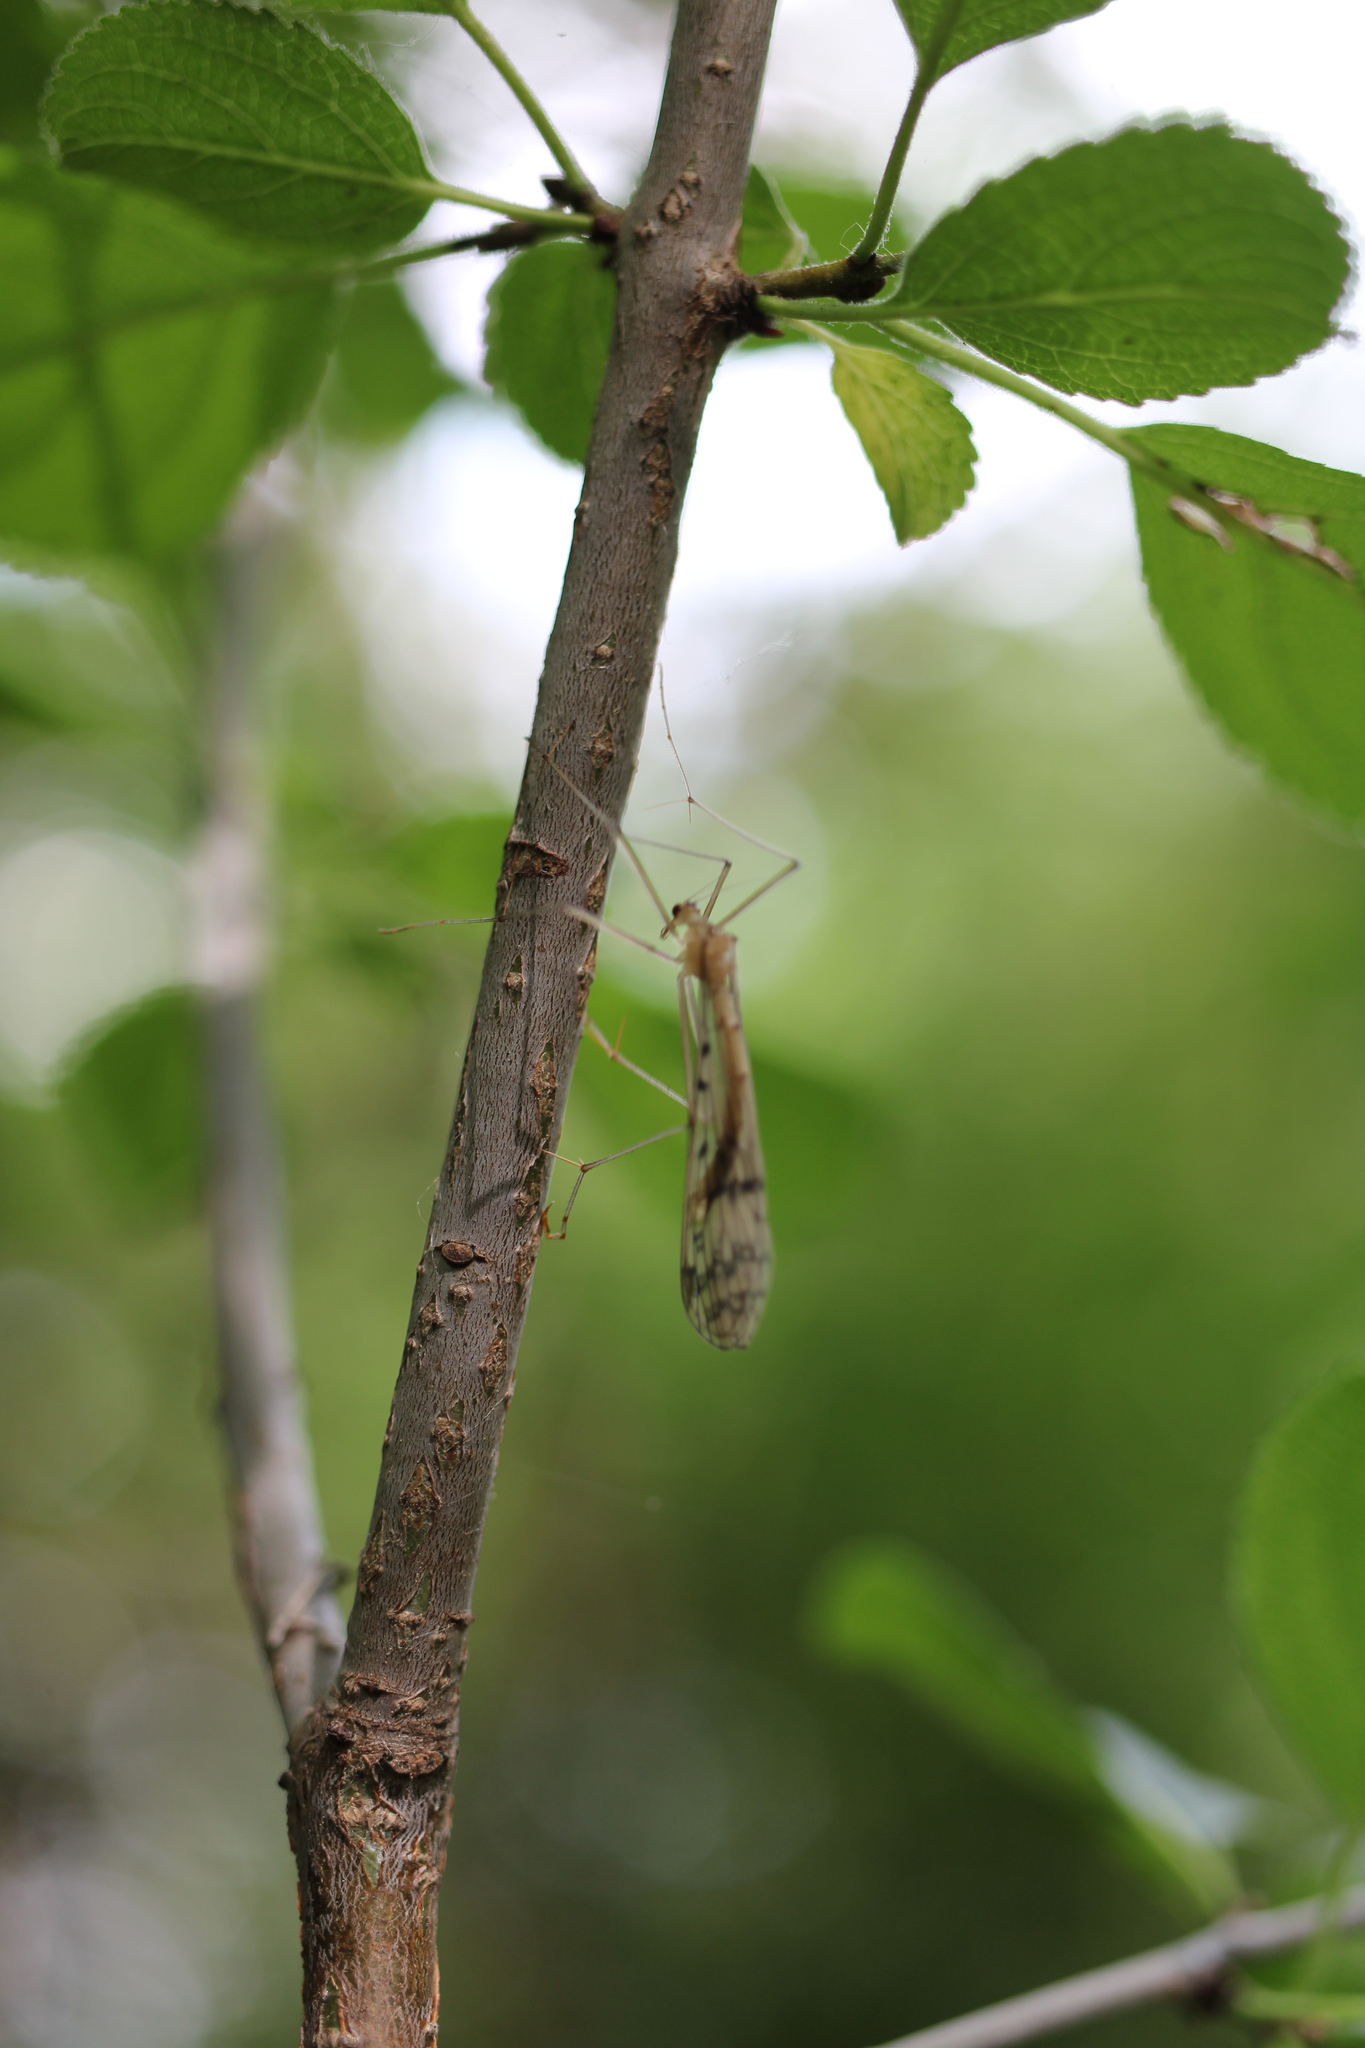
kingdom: Animalia
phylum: Arthropoda
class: Insecta
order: Mecoptera
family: Bittacidae
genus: Bittacus
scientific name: Bittacus strigosus
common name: Thin hangingfly
